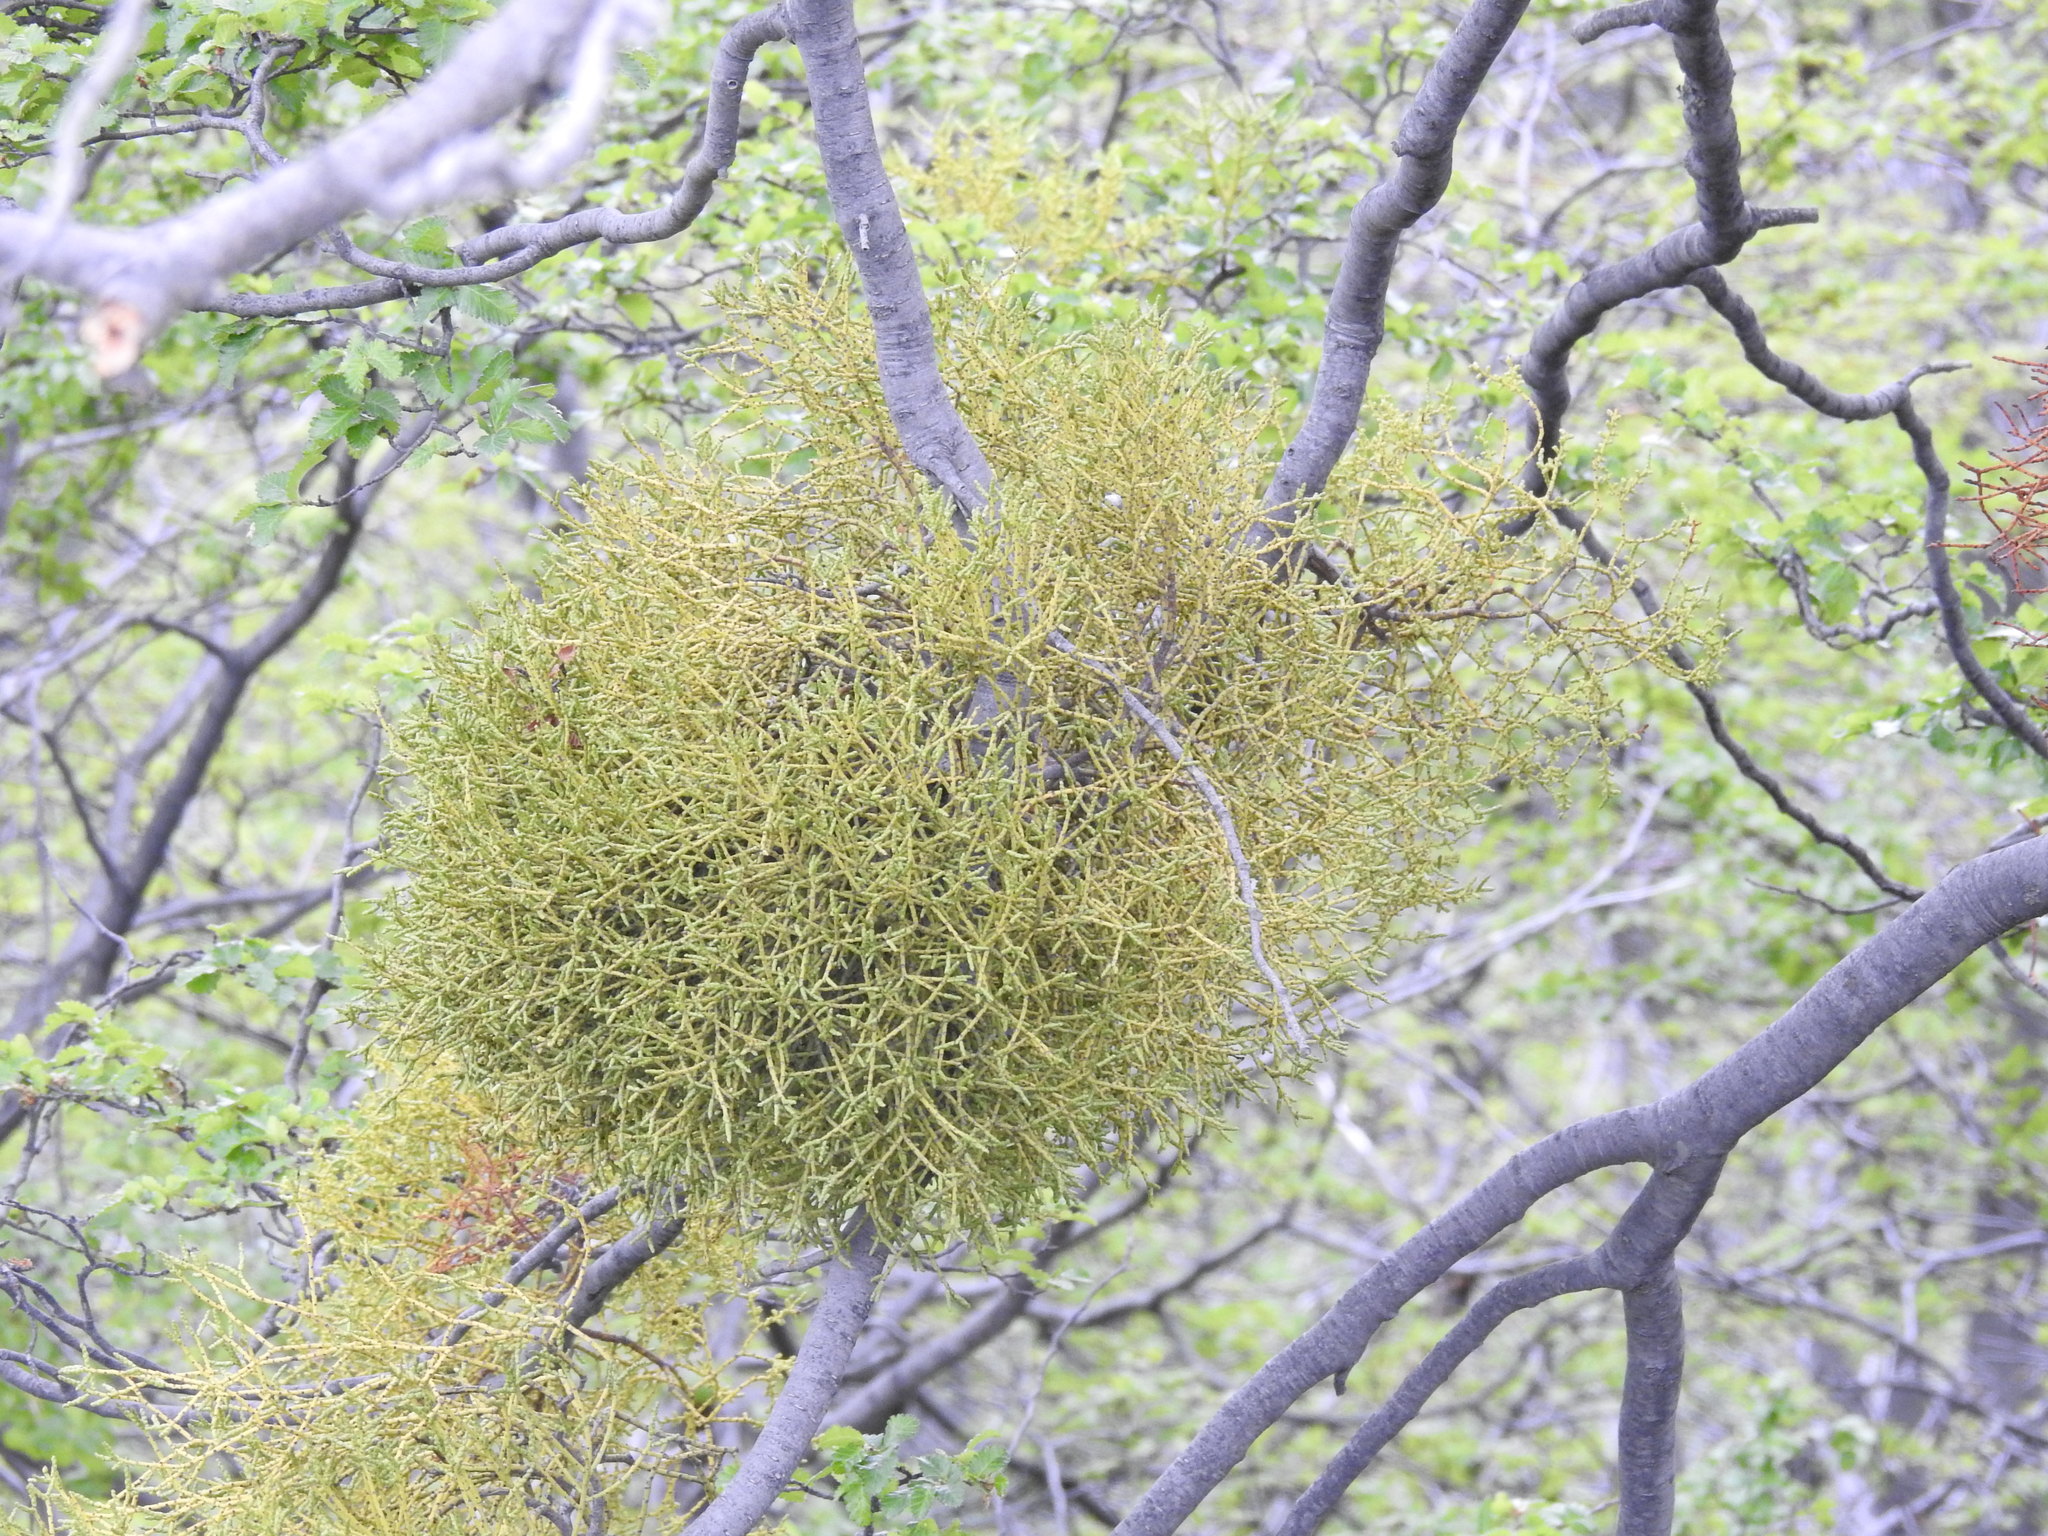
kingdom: Plantae
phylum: Tracheophyta
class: Magnoliopsida
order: Santalales
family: Misodendraceae
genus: Misodendrum
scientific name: Misodendrum punctulatum
